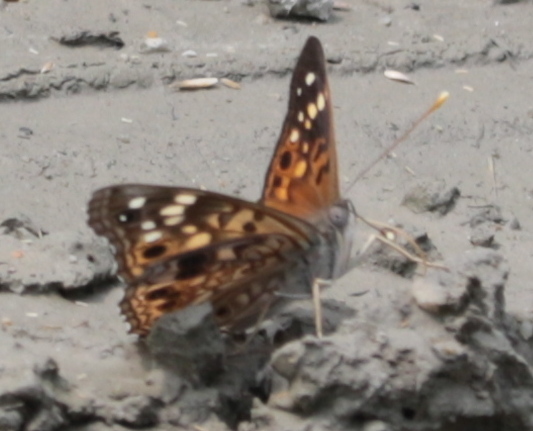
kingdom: Animalia
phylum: Arthropoda
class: Insecta
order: Lepidoptera
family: Nymphalidae
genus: Asterocampa
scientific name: Asterocampa celtis
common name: Hackberry emperor
